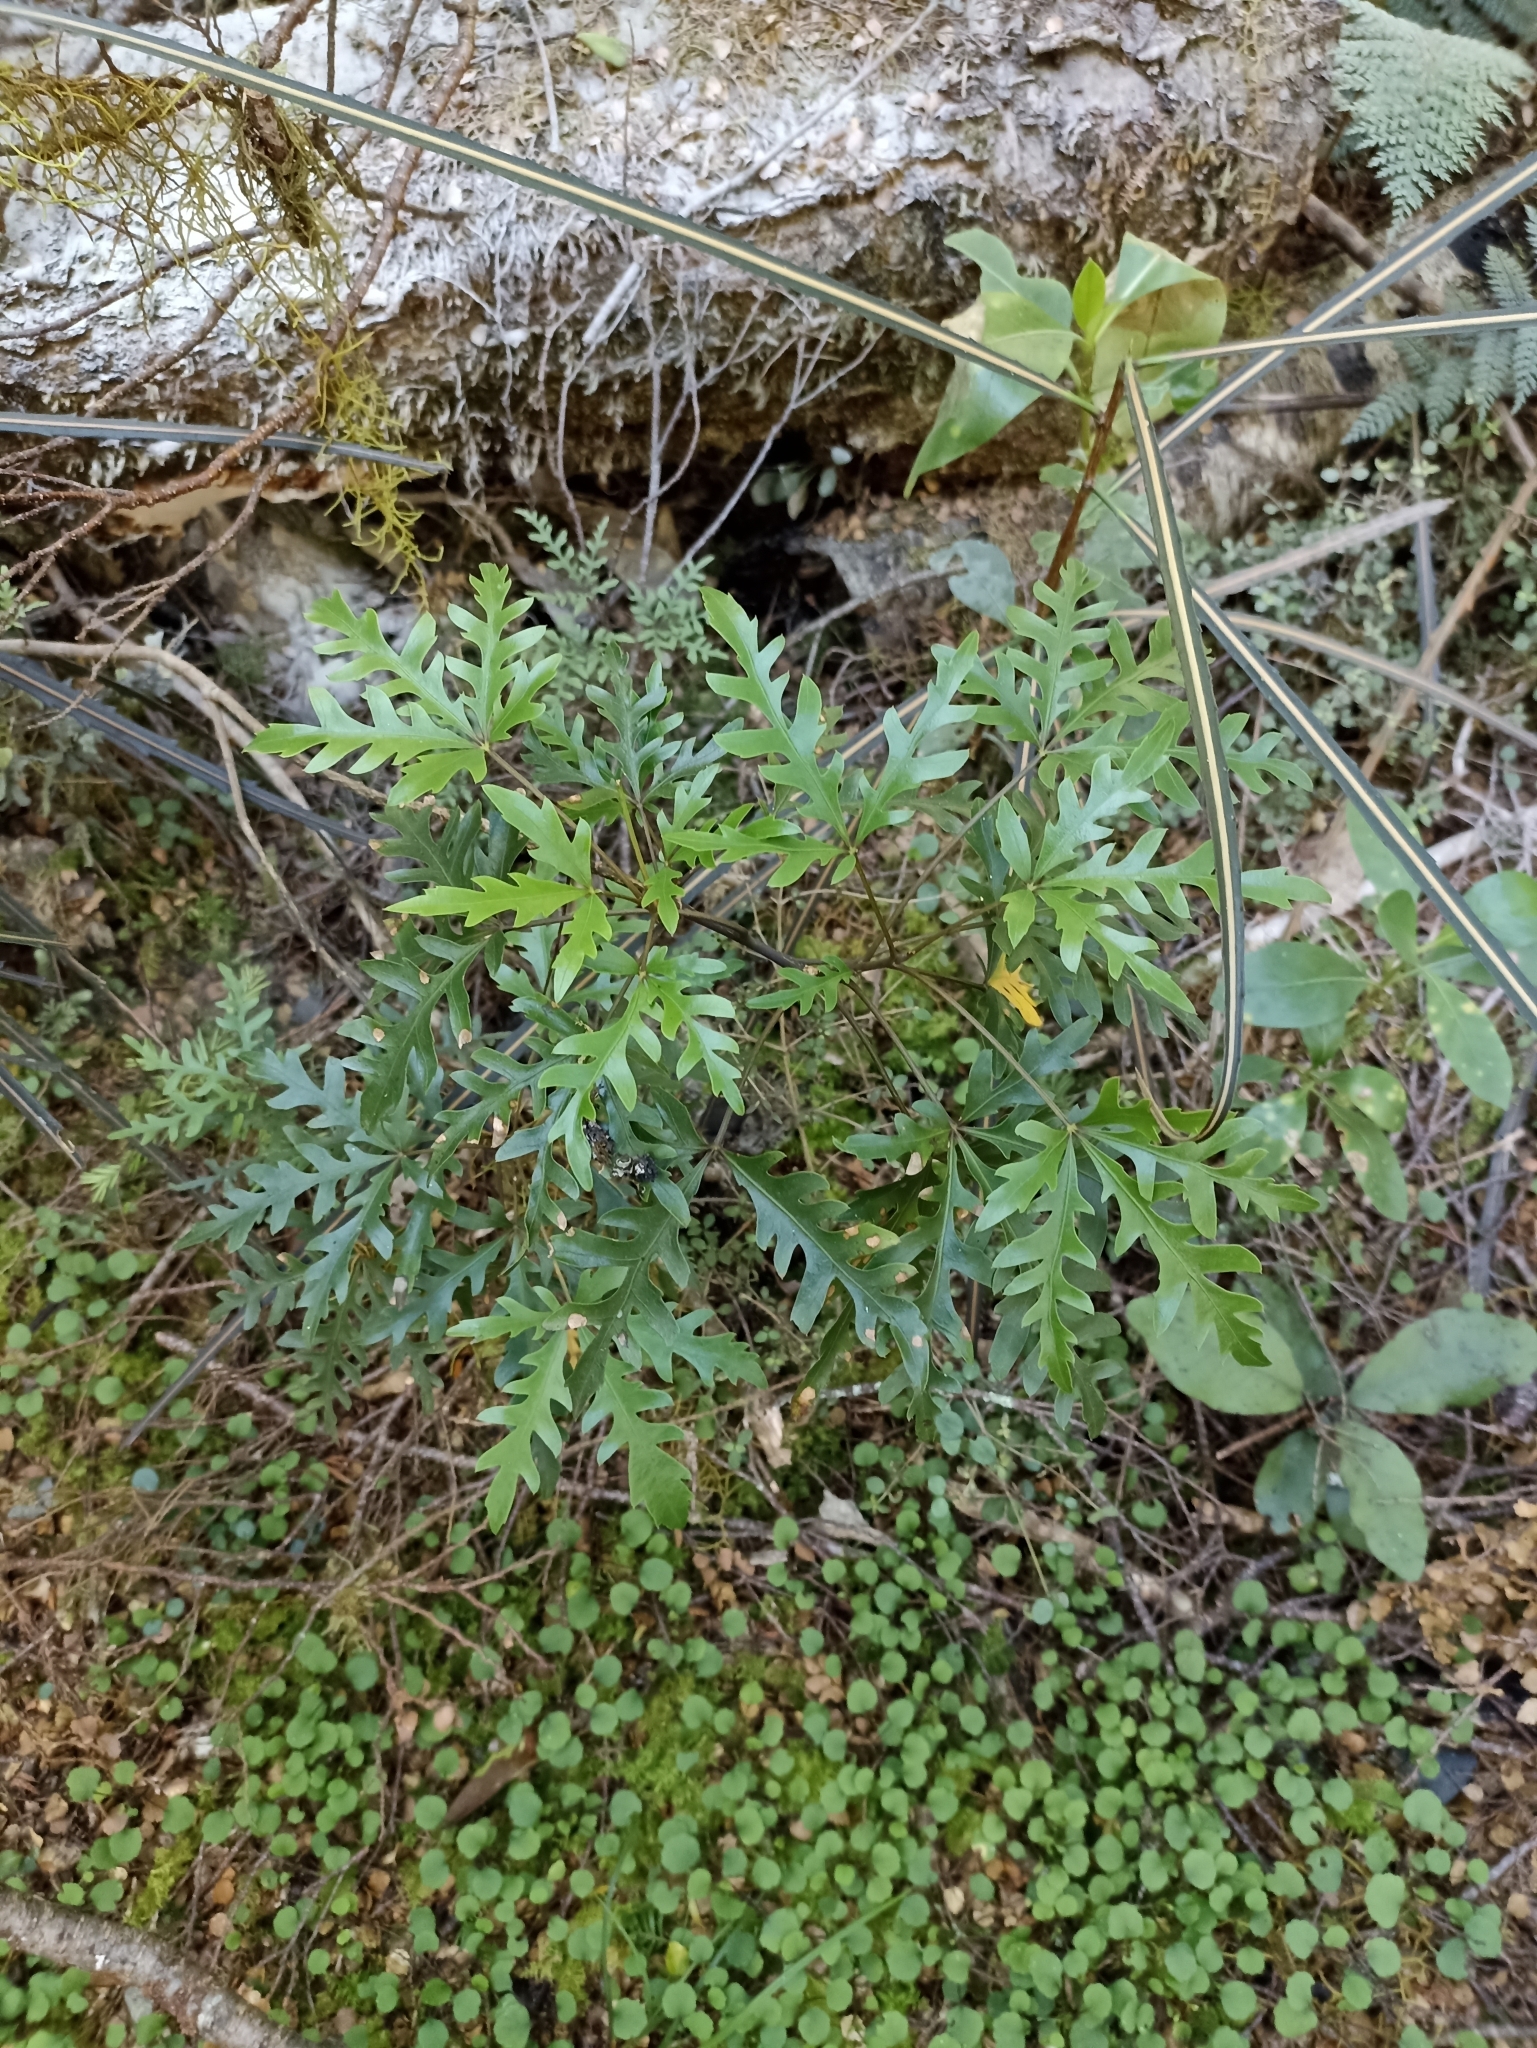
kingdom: Plantae
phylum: Tracheophyta
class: Magnoliopsida
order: Apiales
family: Araliaceae
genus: Raukaua
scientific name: Raukaua simplex
